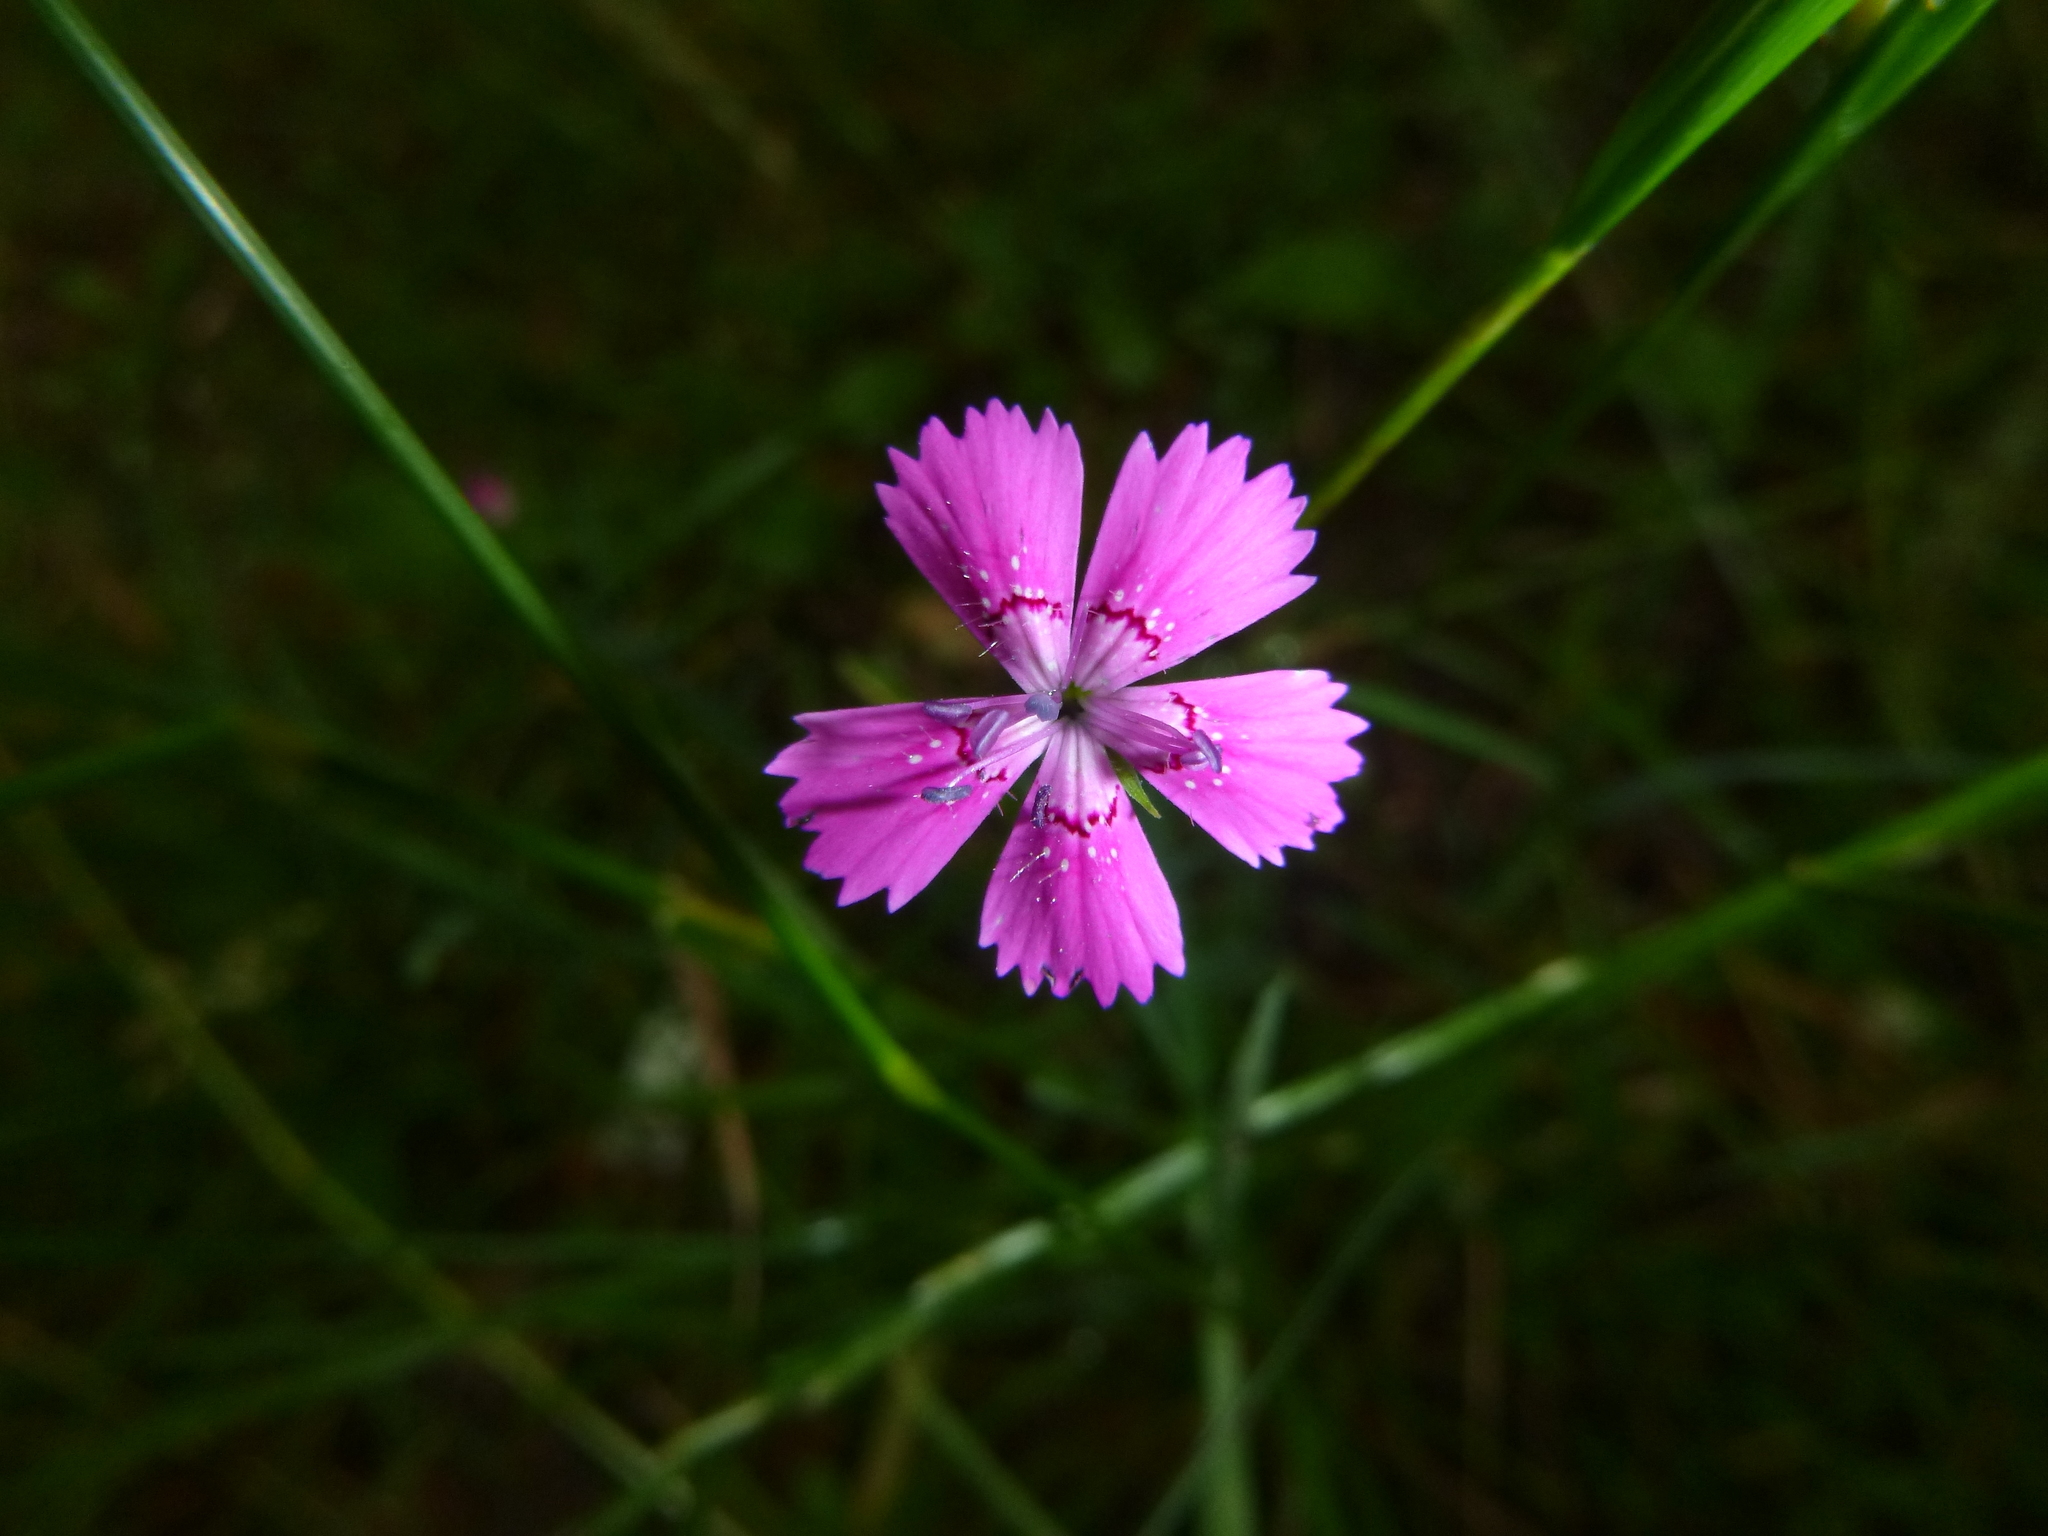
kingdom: Plantae
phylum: Tracheophyta
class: Magnoliopsida
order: Caryophyllales
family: Caryophyllaceae
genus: Dianthus
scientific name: Dianthus deltoides
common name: Maiden pink
